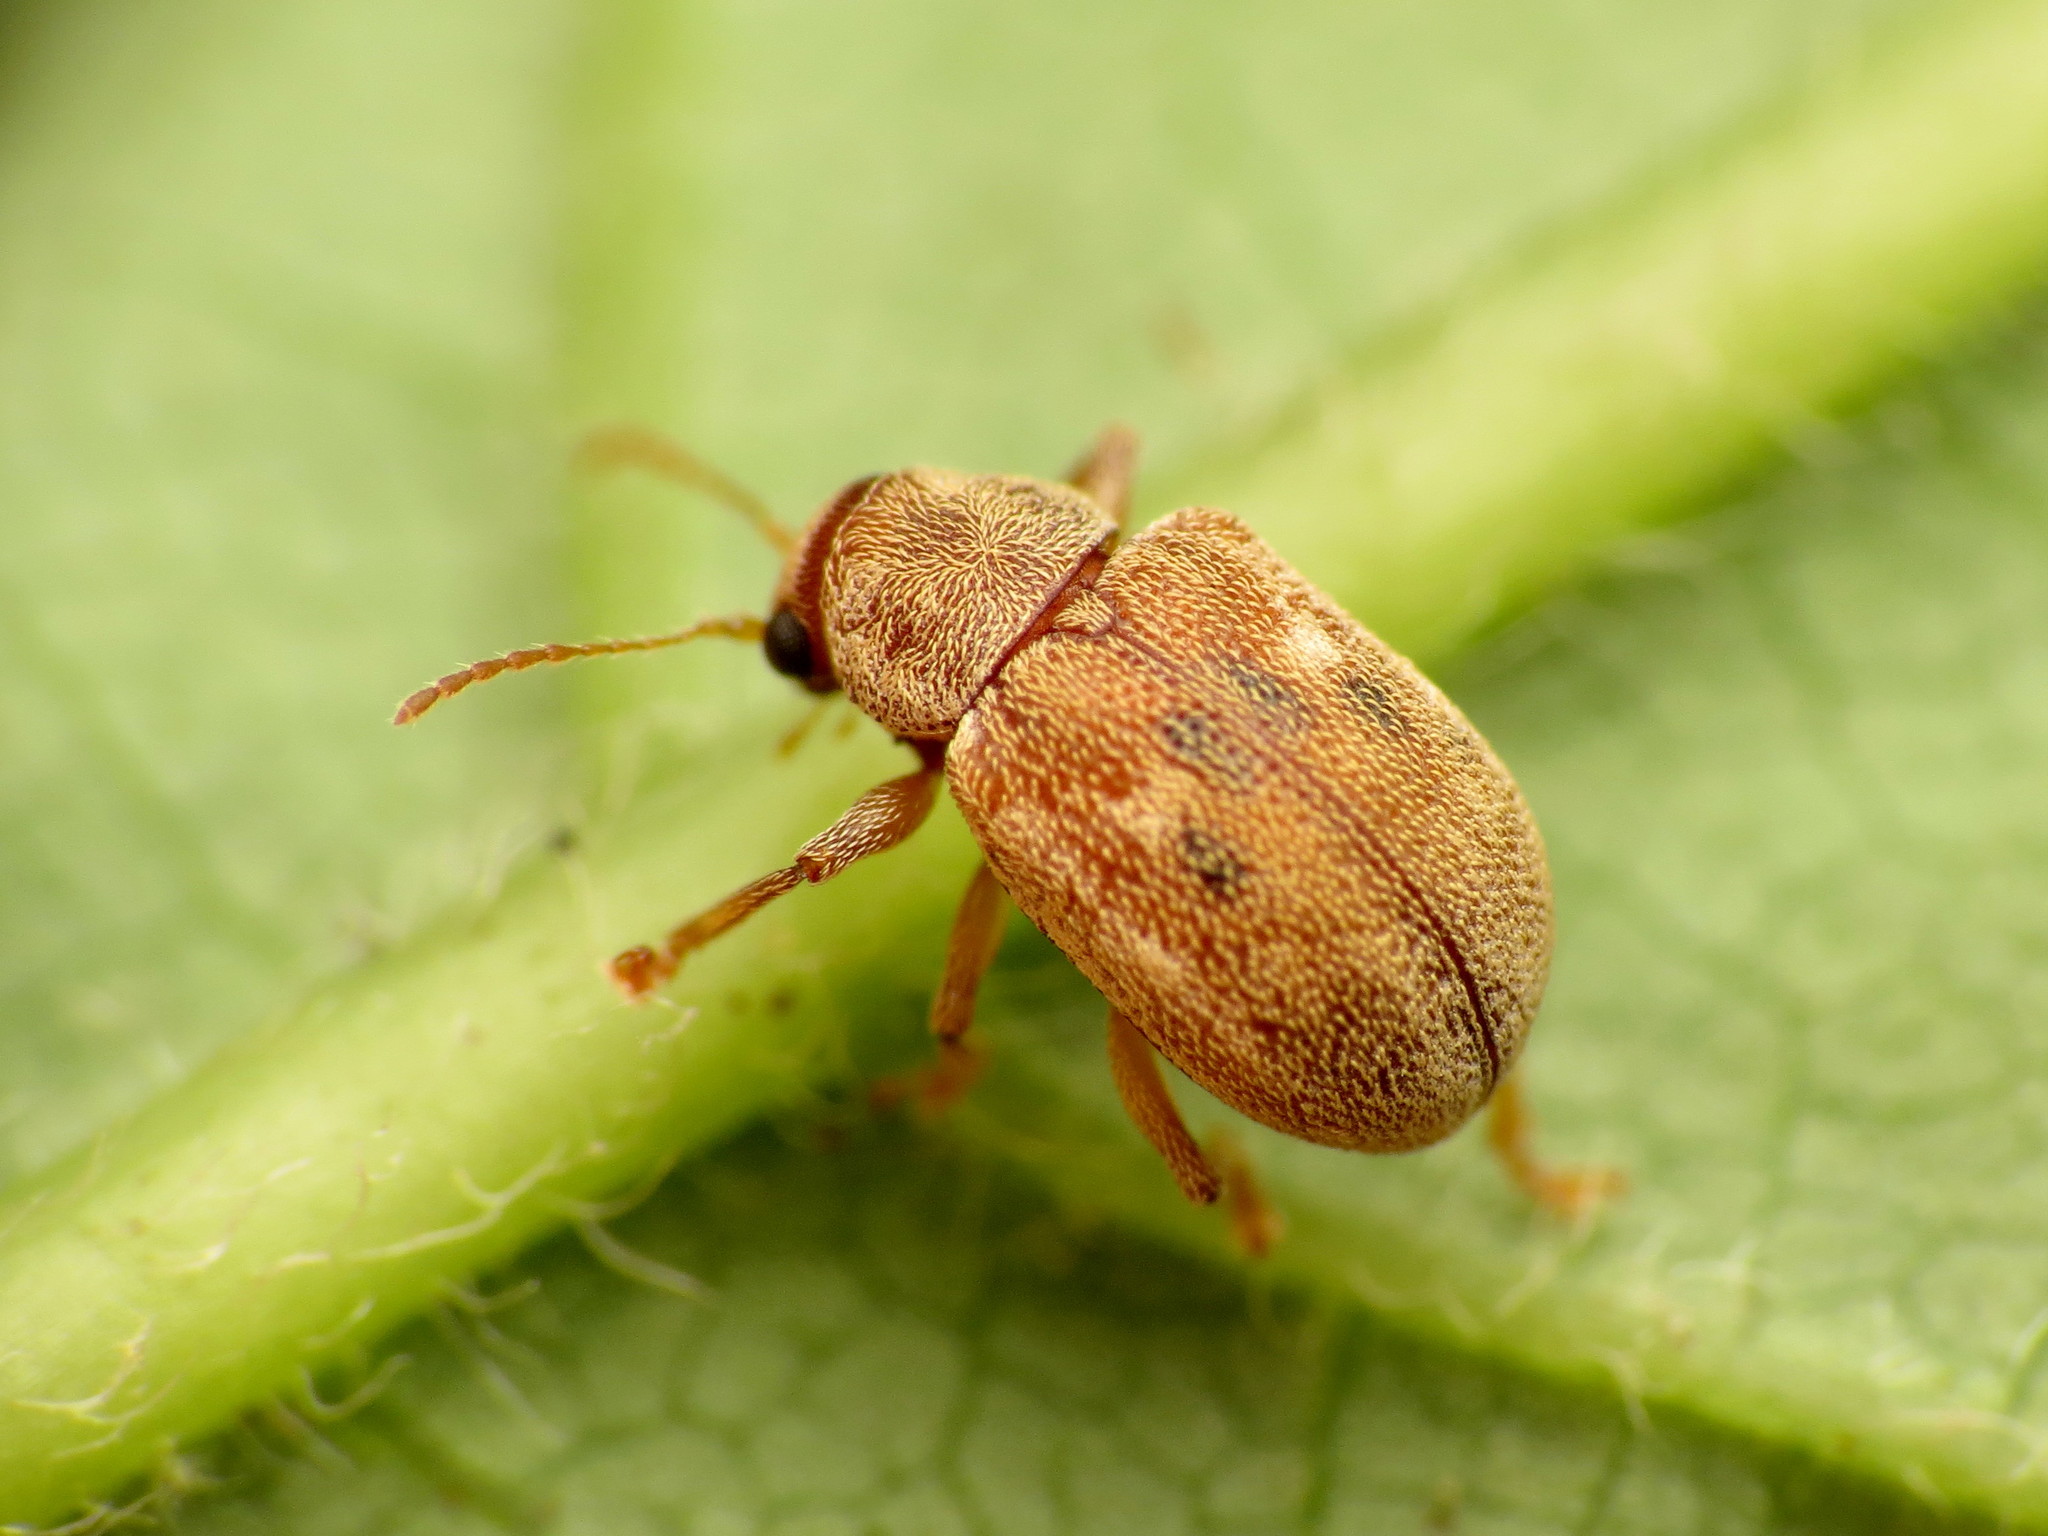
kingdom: Animalia
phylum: Arthropoda
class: Insecta
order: Coleoptera
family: Chrysomelidae
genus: Demotina
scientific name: Demotina modesta
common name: Leaf beetle
